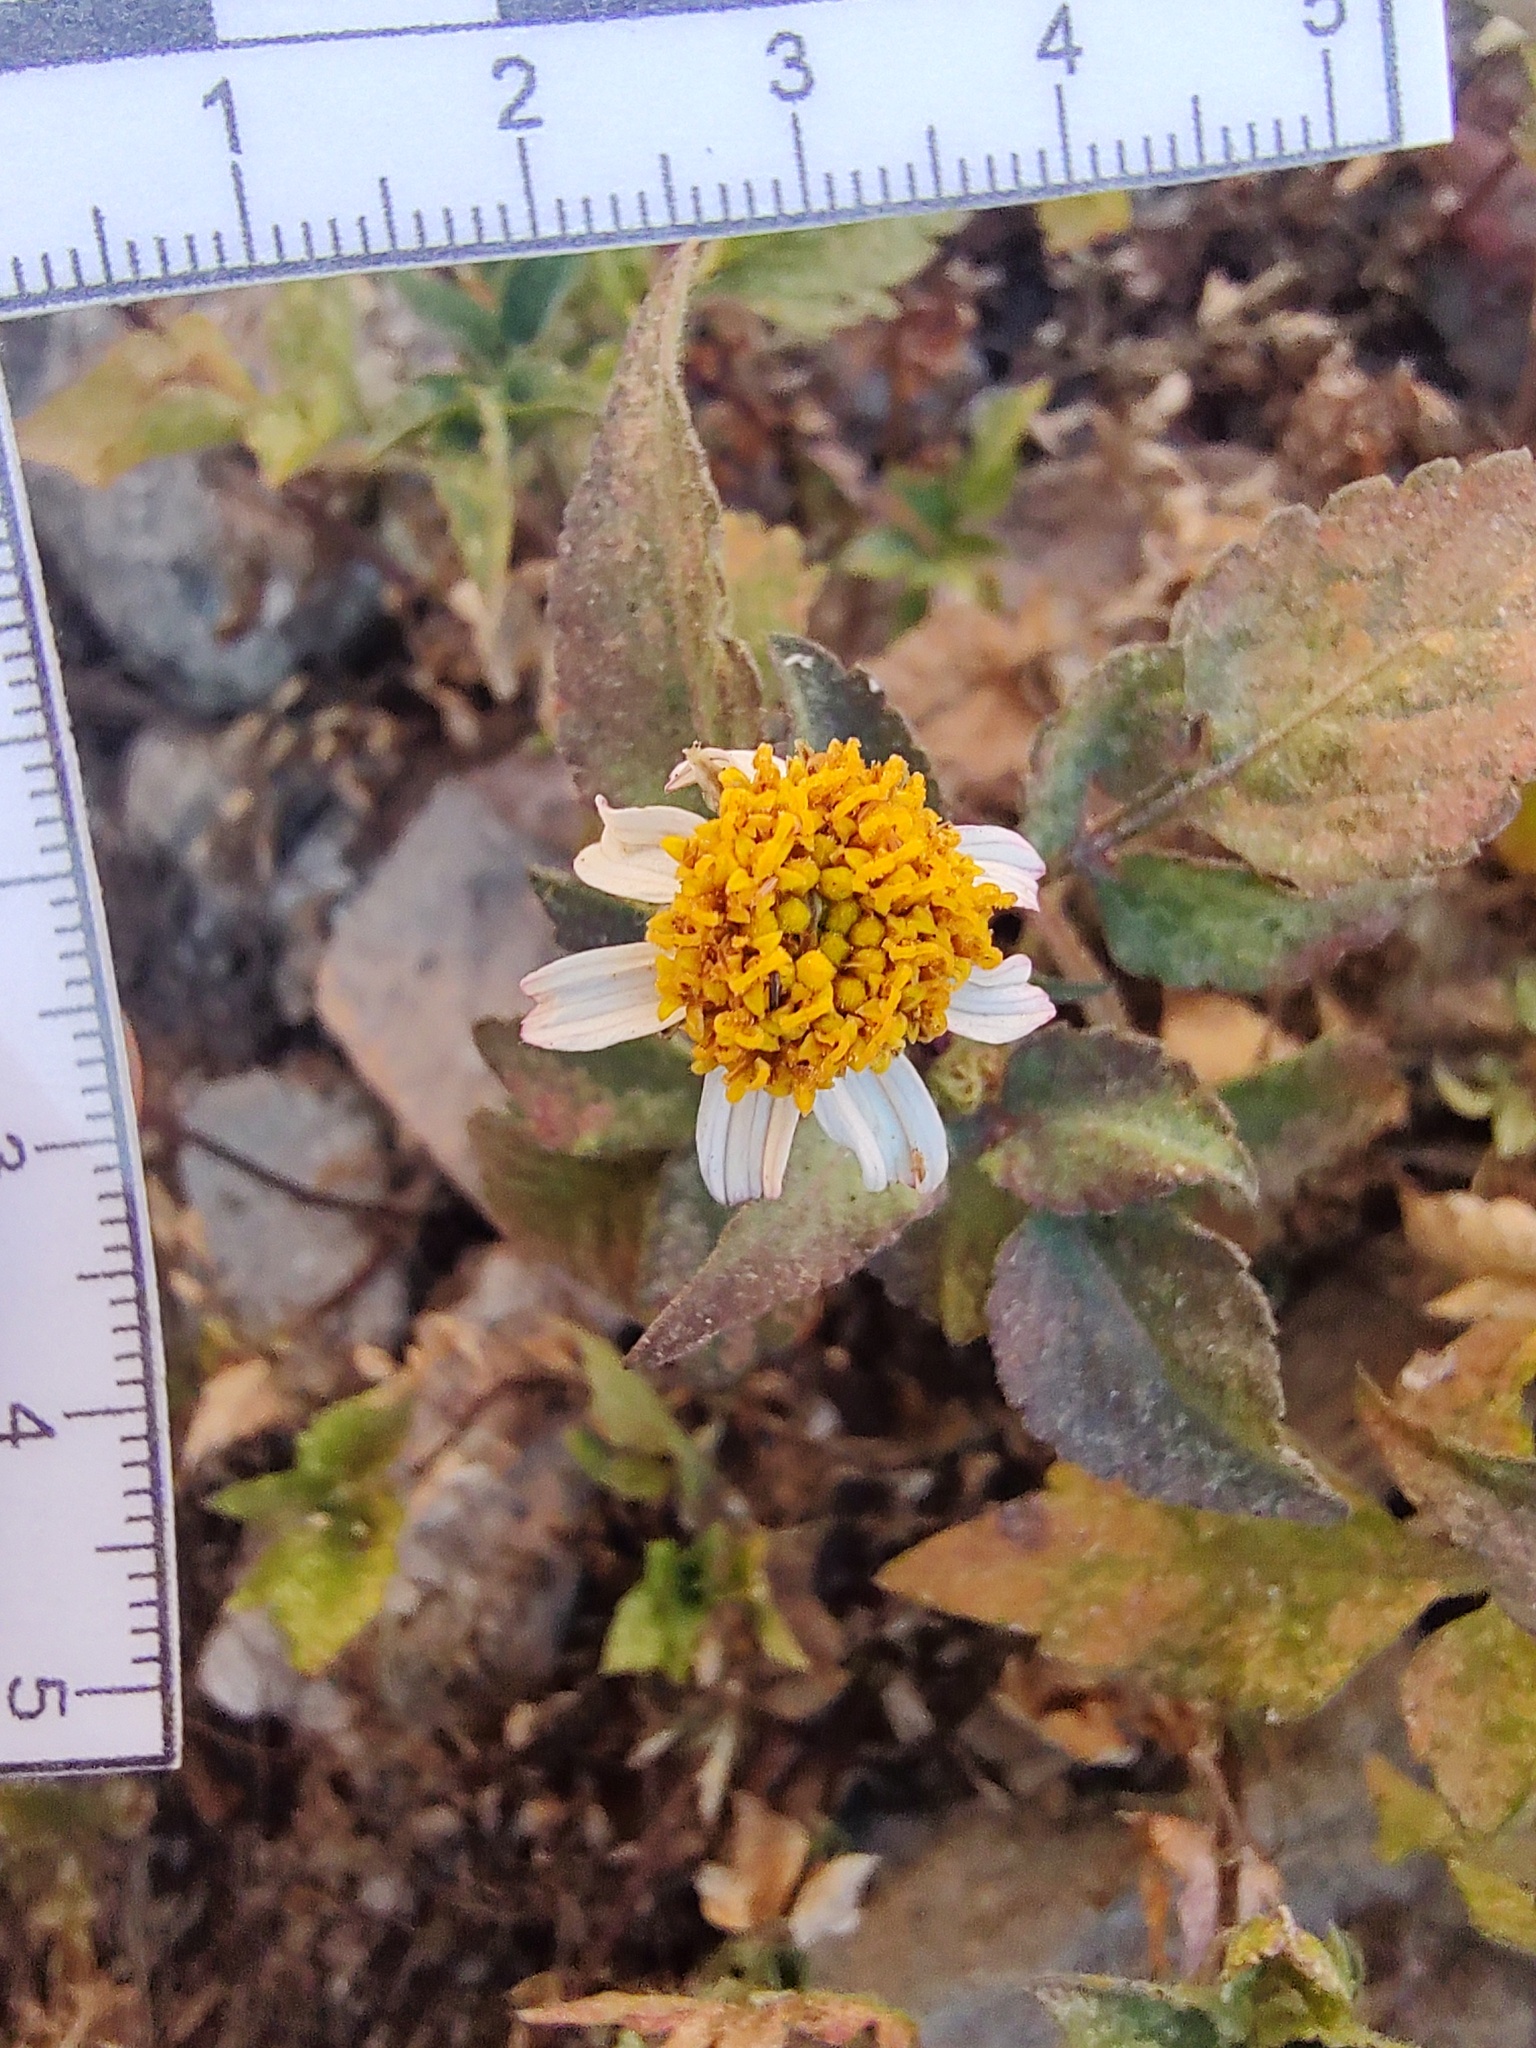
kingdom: Plantae
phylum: Tracheophyta
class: Magnoliopsida
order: Asterales
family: Asteraceae
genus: Bidens
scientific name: Bidens odorata
